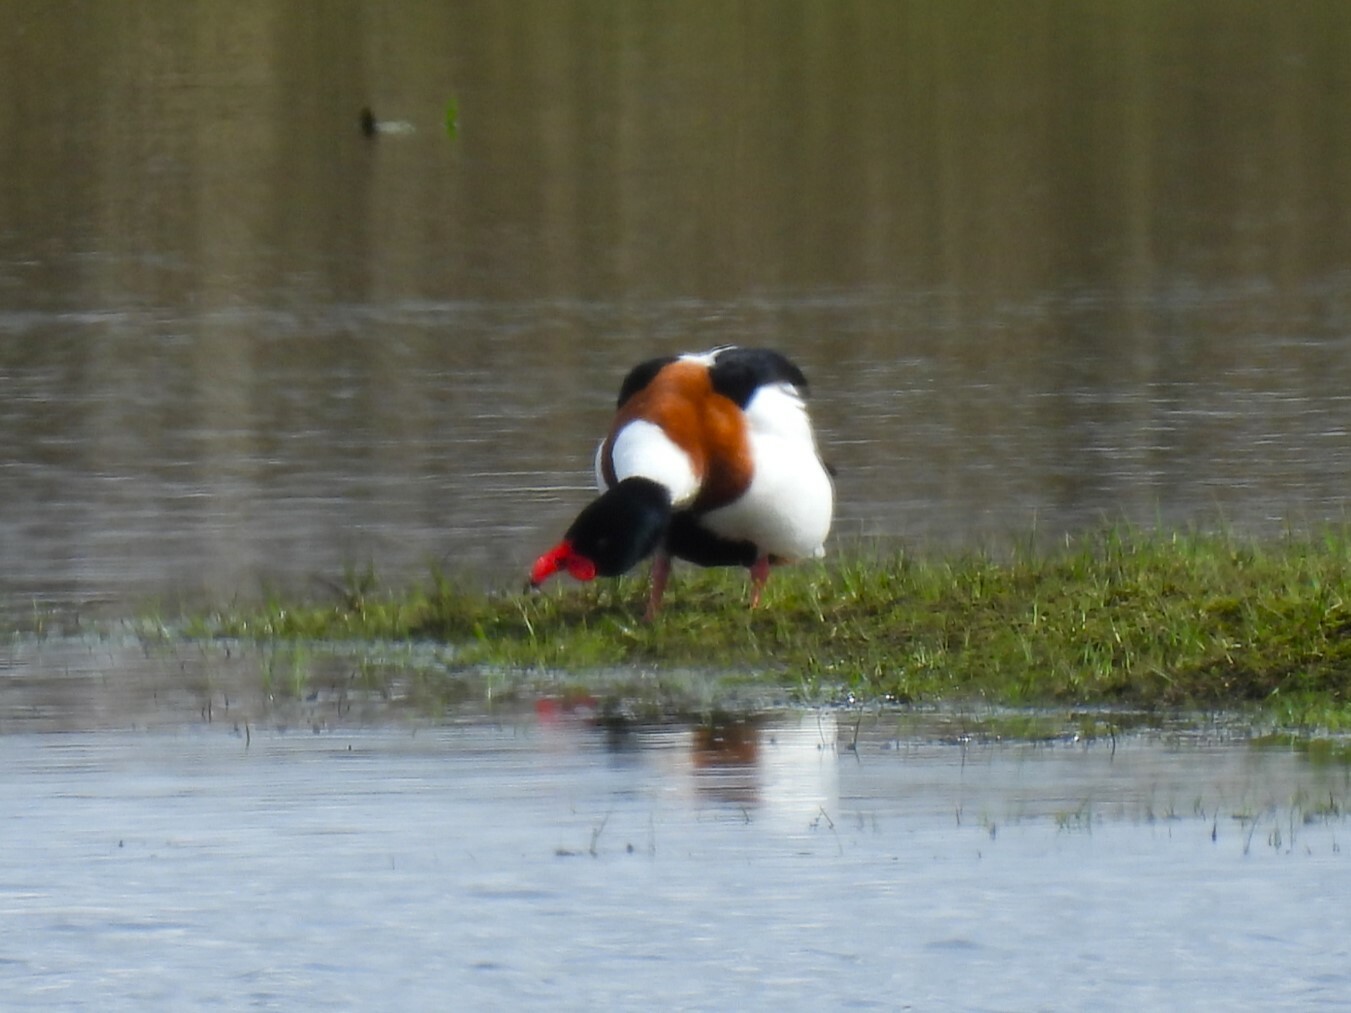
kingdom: Animalia
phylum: Chordata
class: Aves
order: Anseriformes
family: Anatidae
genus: Tadorna
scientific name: Tadorna tadorna
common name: Common shelduck
